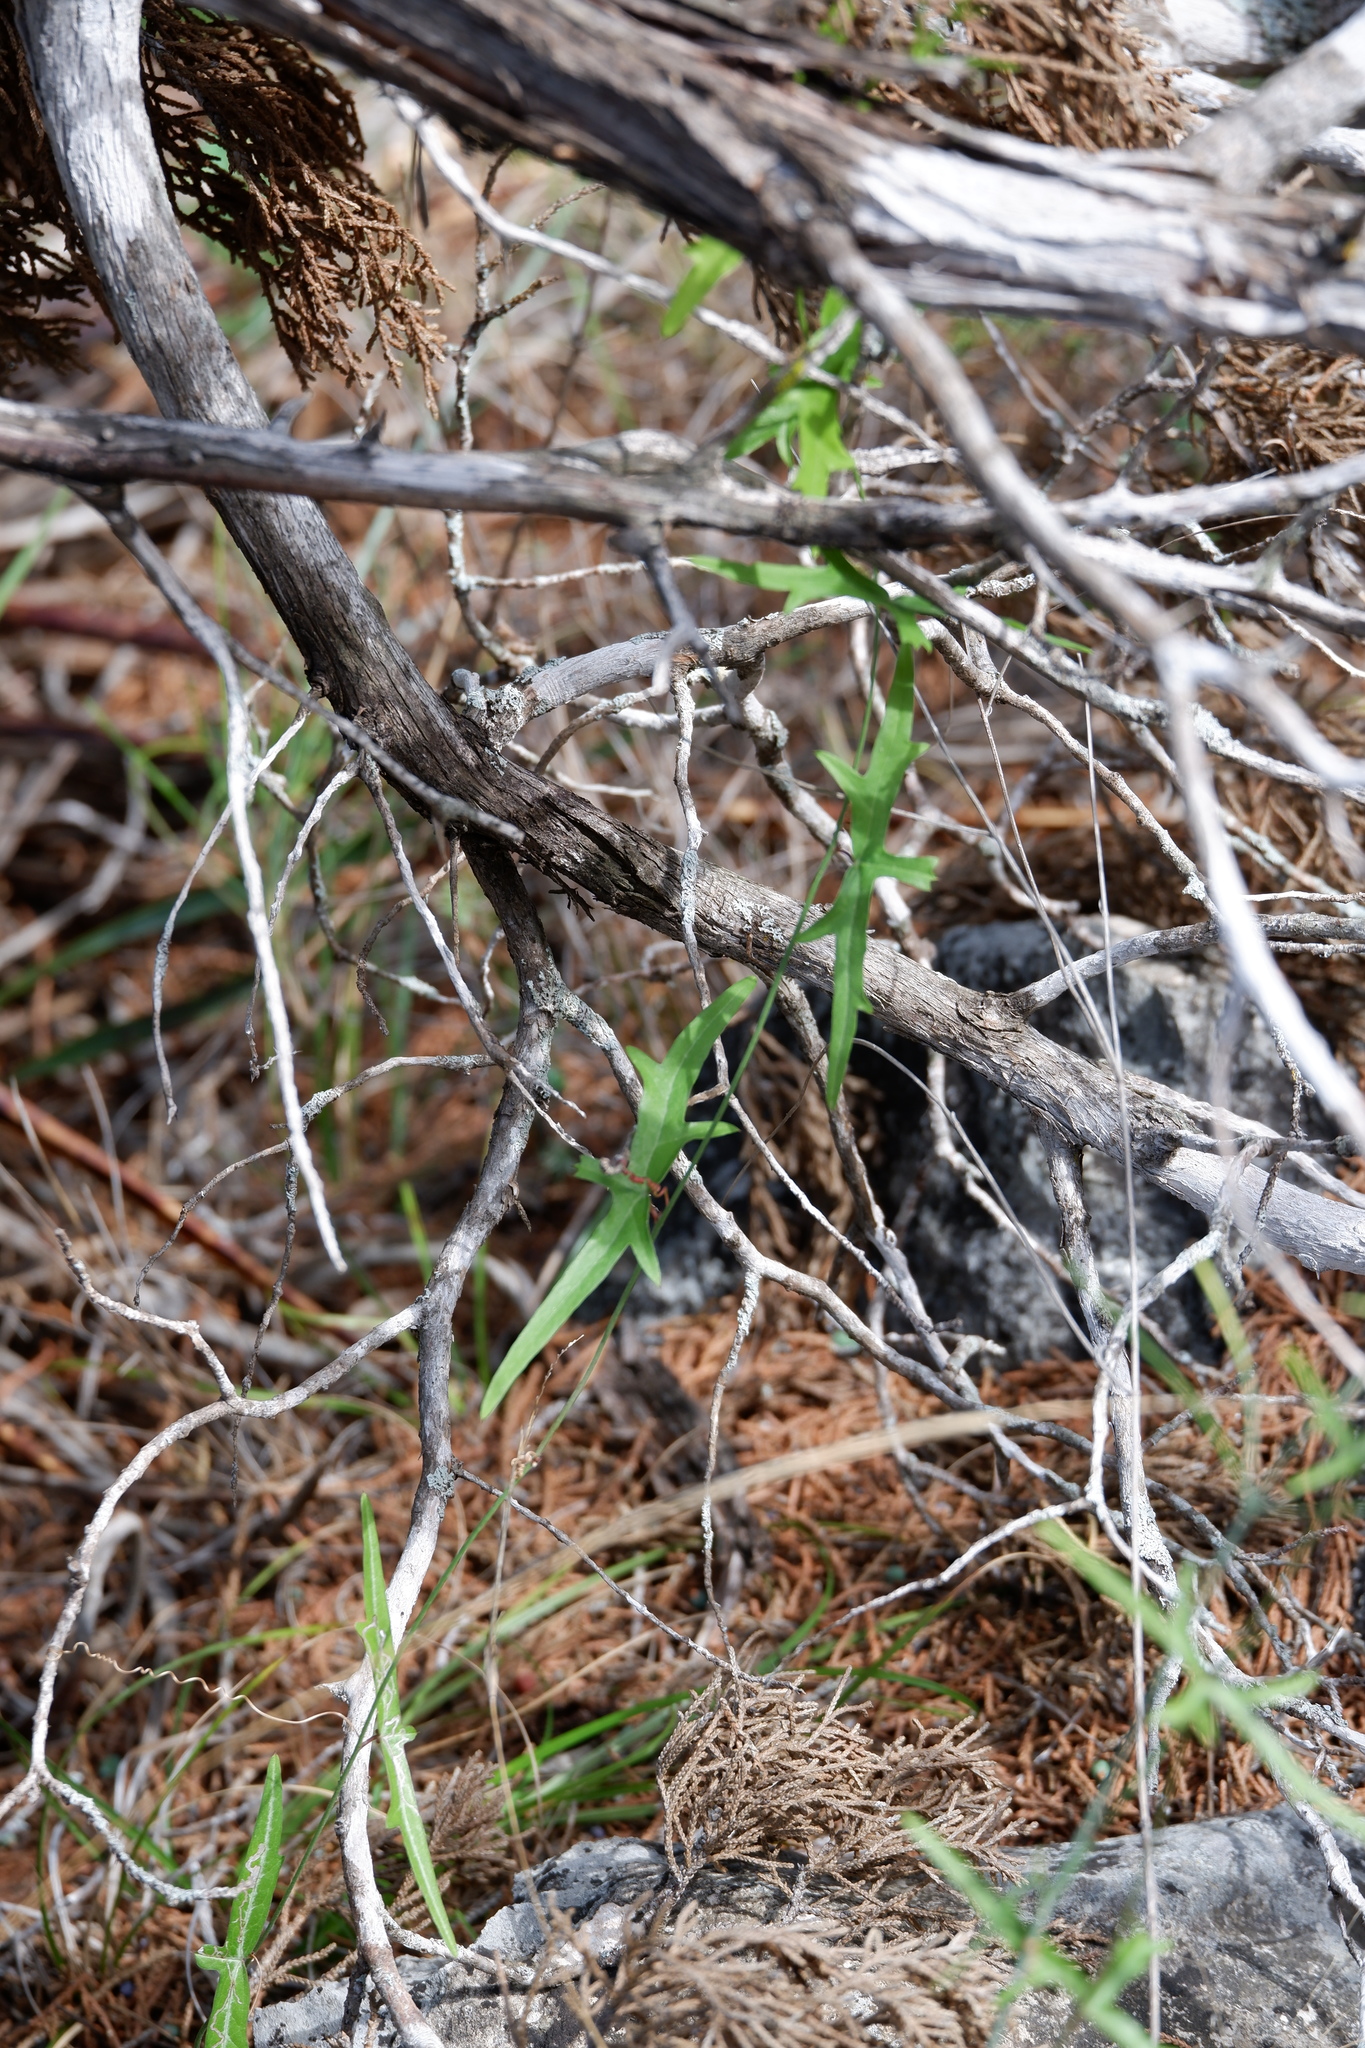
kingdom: Plantae
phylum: Tracheophyta
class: Magnoliopsida
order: Malpighiales
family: Passifloraceae
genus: Passiflora
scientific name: Passiflora tenuiloba
